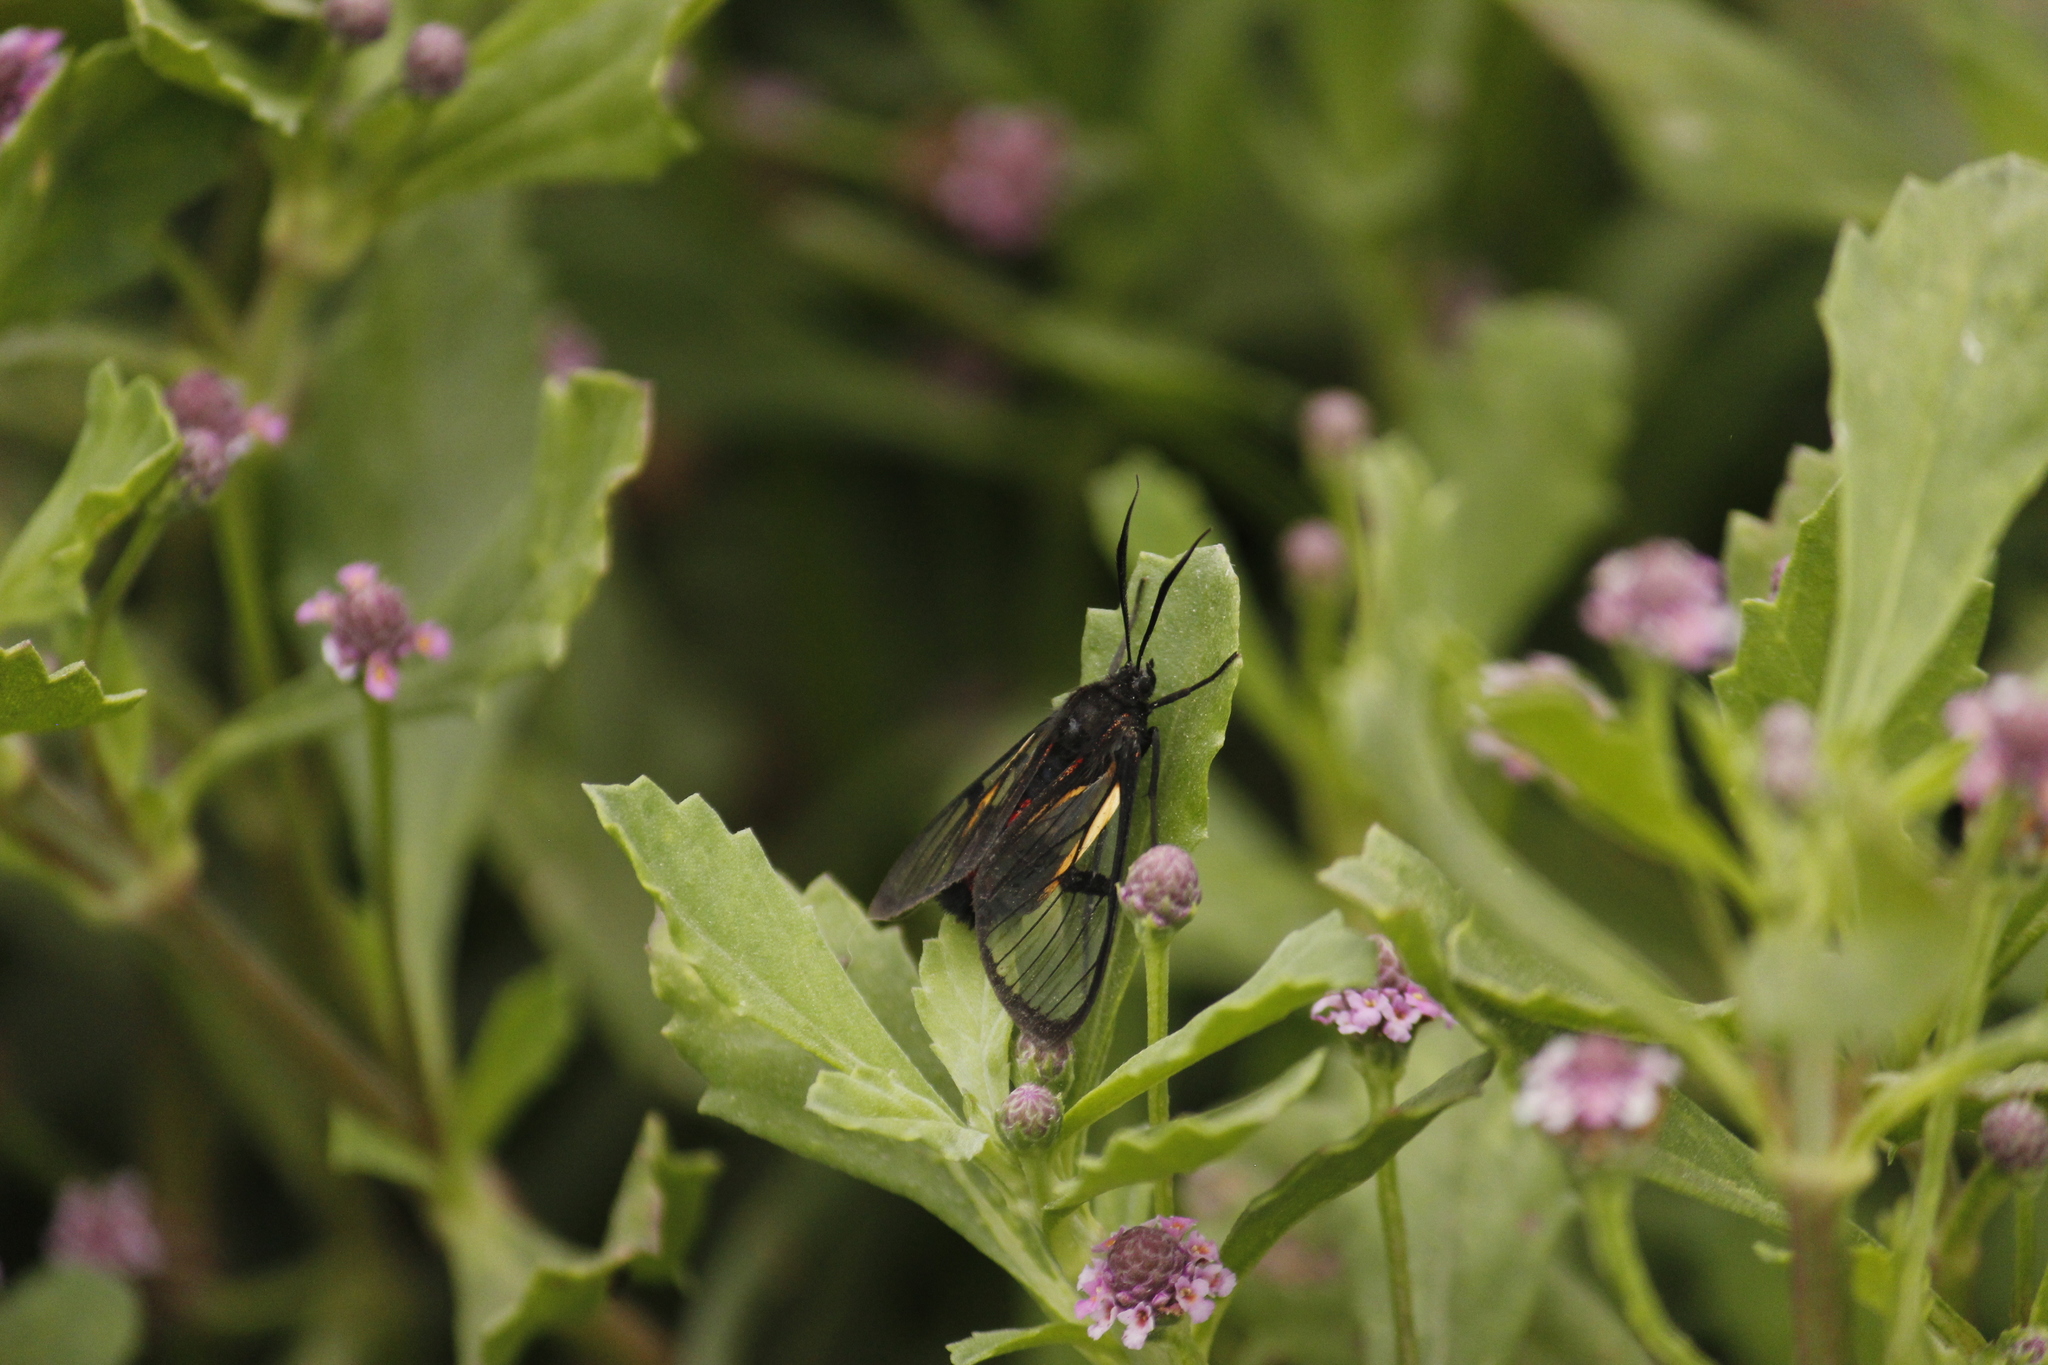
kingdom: Animalia
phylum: Arthropoda
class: Insecta
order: Lepidoptera
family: Erebidae
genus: Dinia
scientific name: Dinia subapicalis
